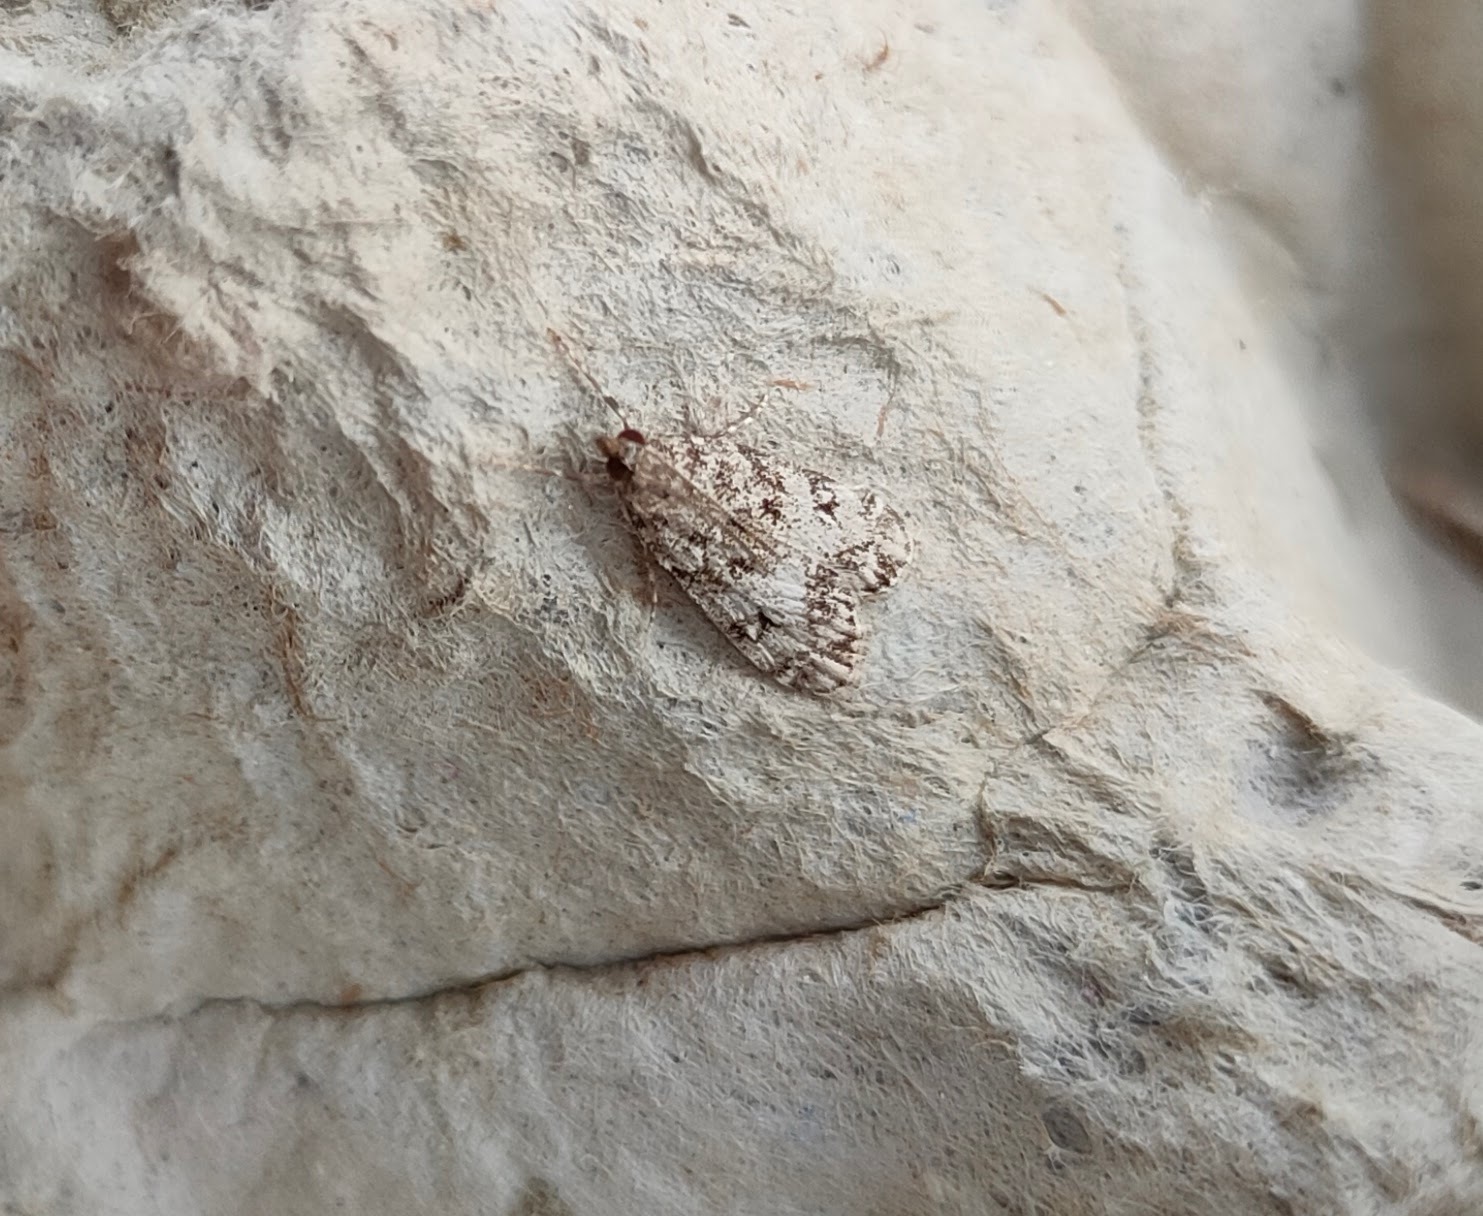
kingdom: Animalia
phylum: Arthropoda
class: Insecta
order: Lepidoptera
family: Crambidae
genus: Eudonia
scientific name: Eudonia lacustrata
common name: Little grey
